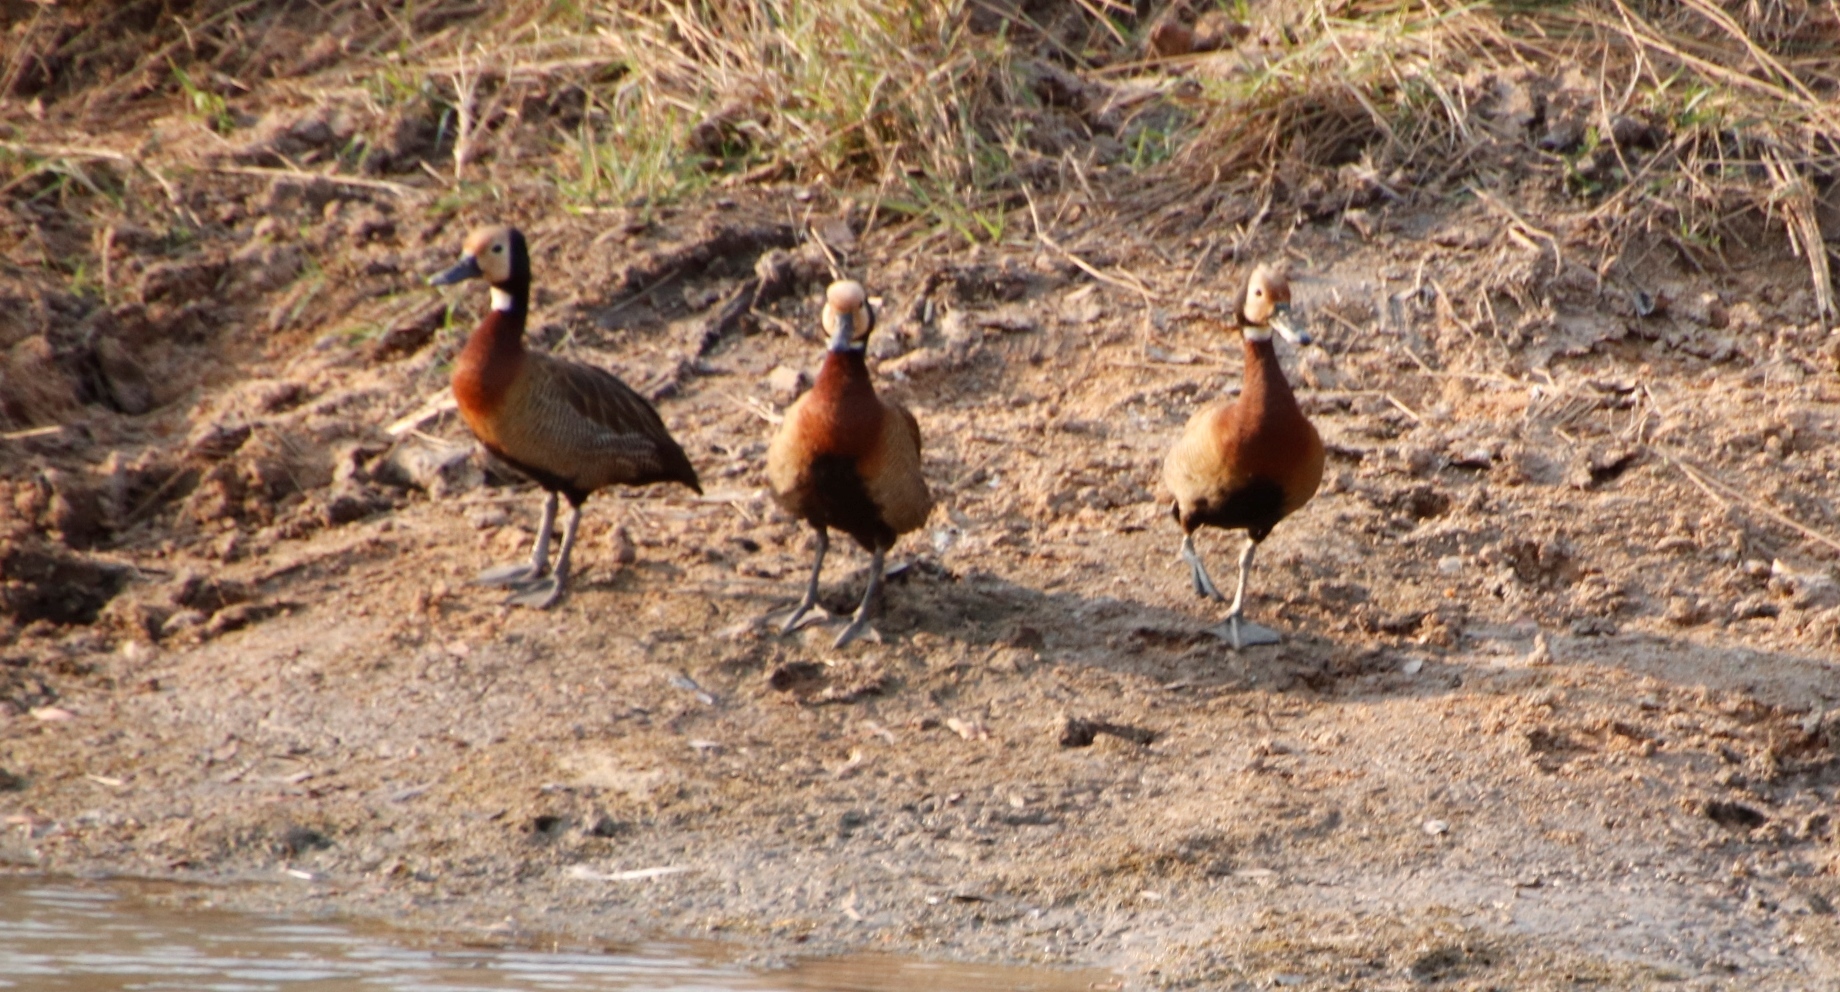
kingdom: Animalia
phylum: Chordata
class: Aves
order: Anseriformes
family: Anatidae
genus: Dendrocygna
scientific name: Dendrocygna viduata
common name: White-faced whistling duck
